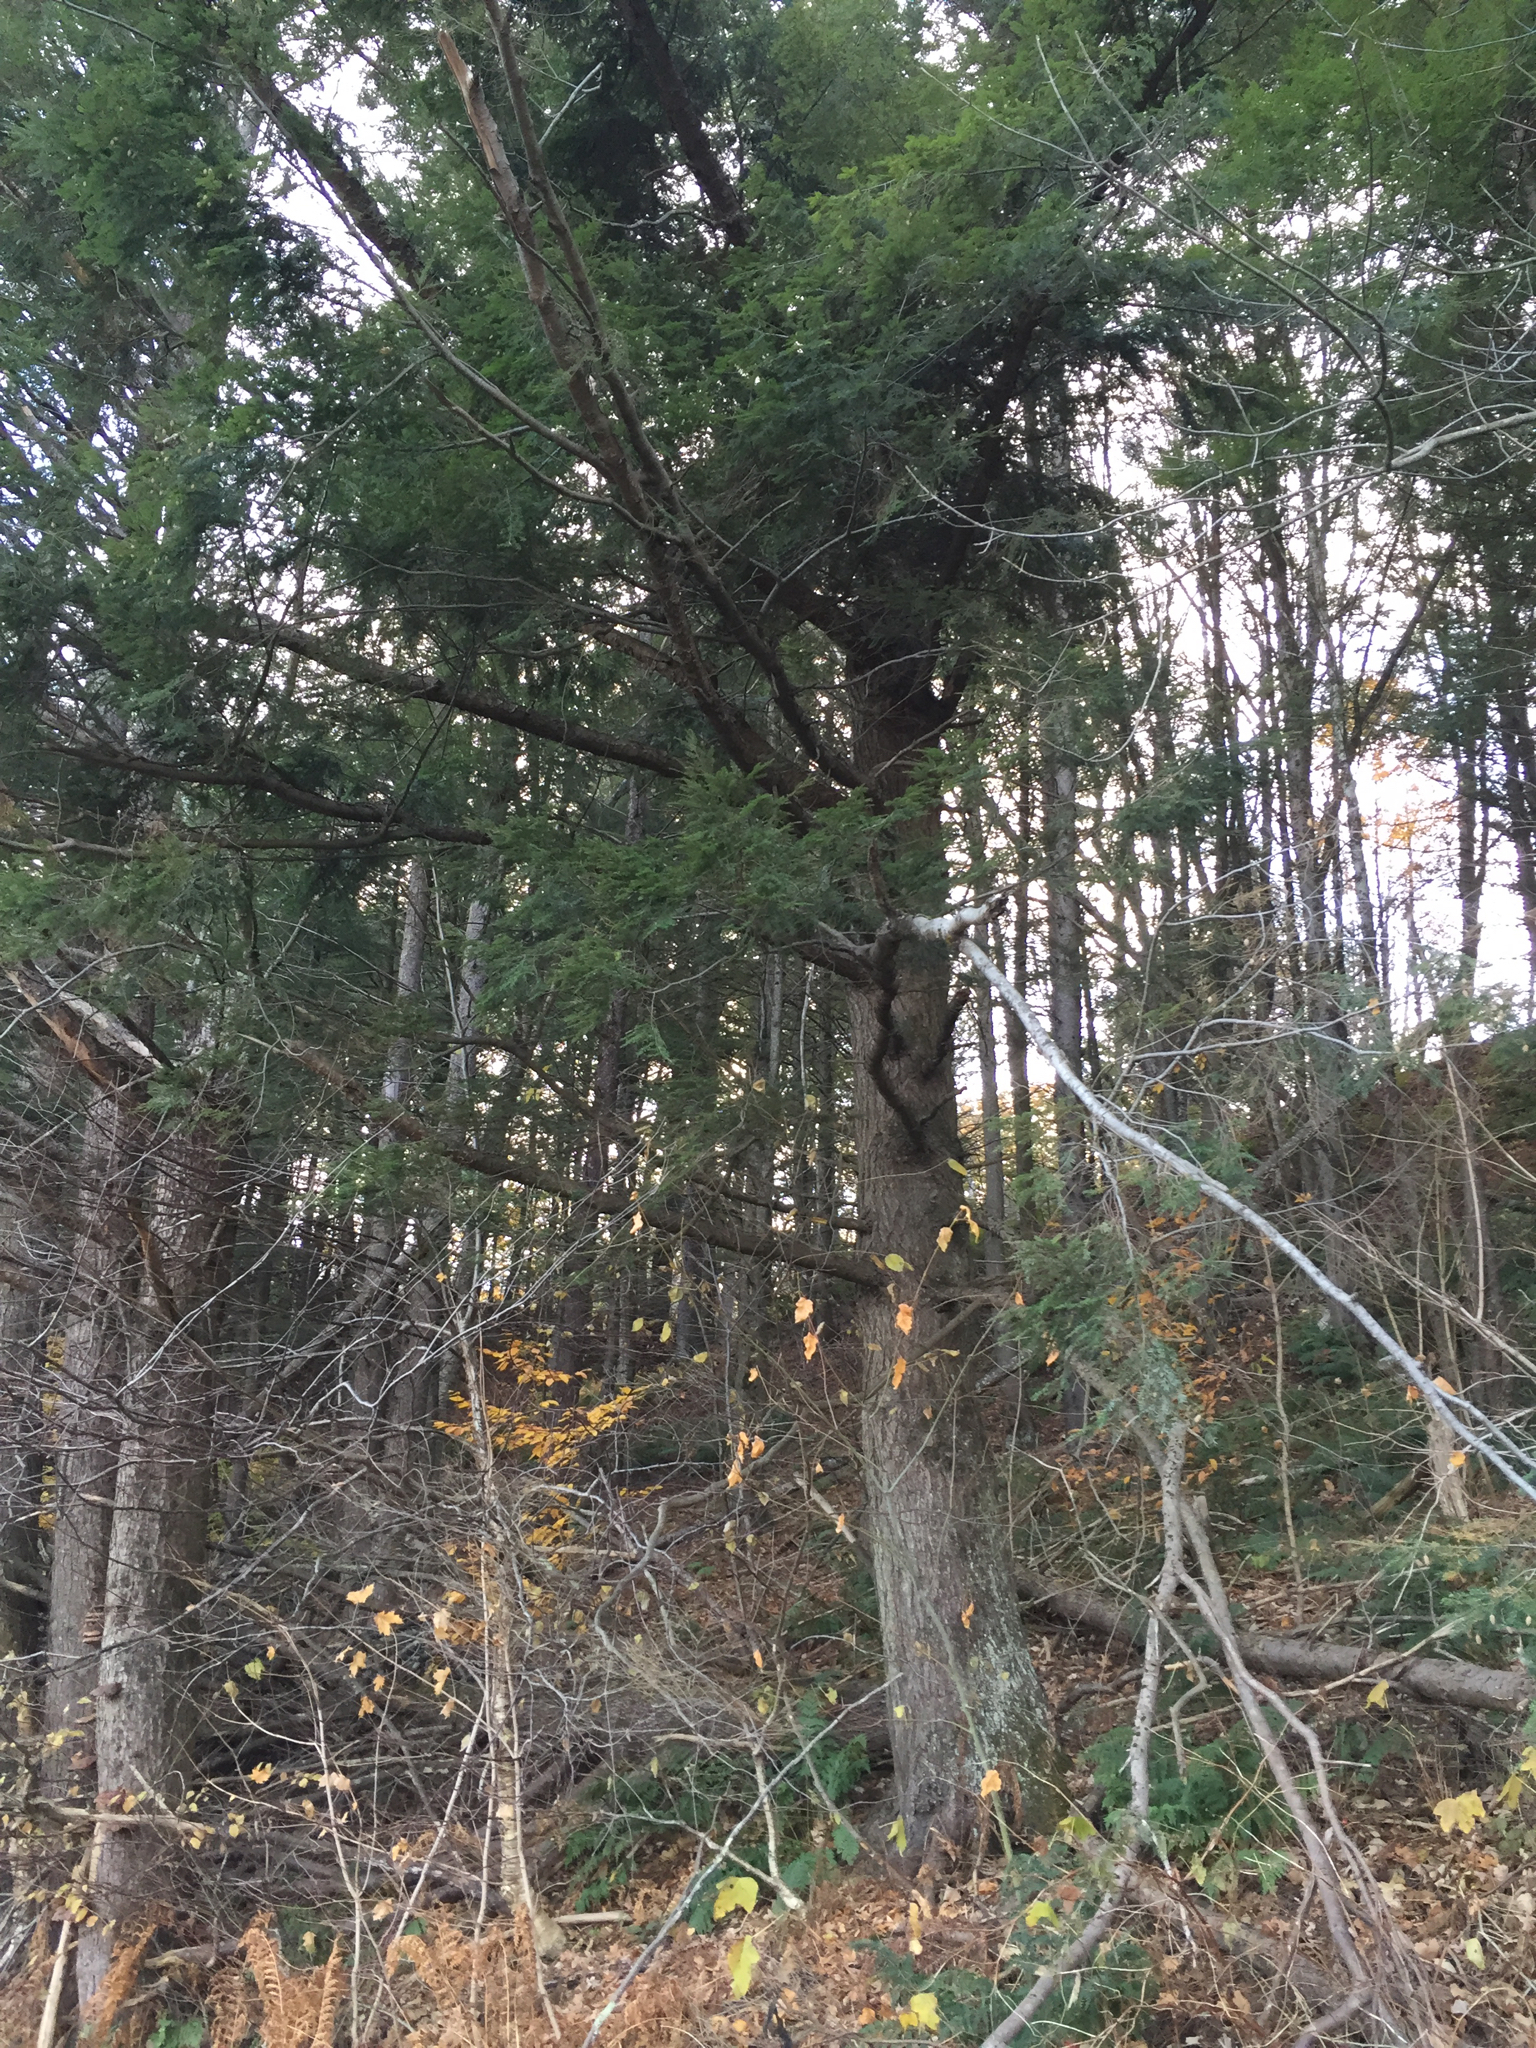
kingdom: Plantae
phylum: Tracheophyta
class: Pinopsida
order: Pinales
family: Pinaceae
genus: Tsuga
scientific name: Tsuga canadensis
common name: Eastern hemlock
